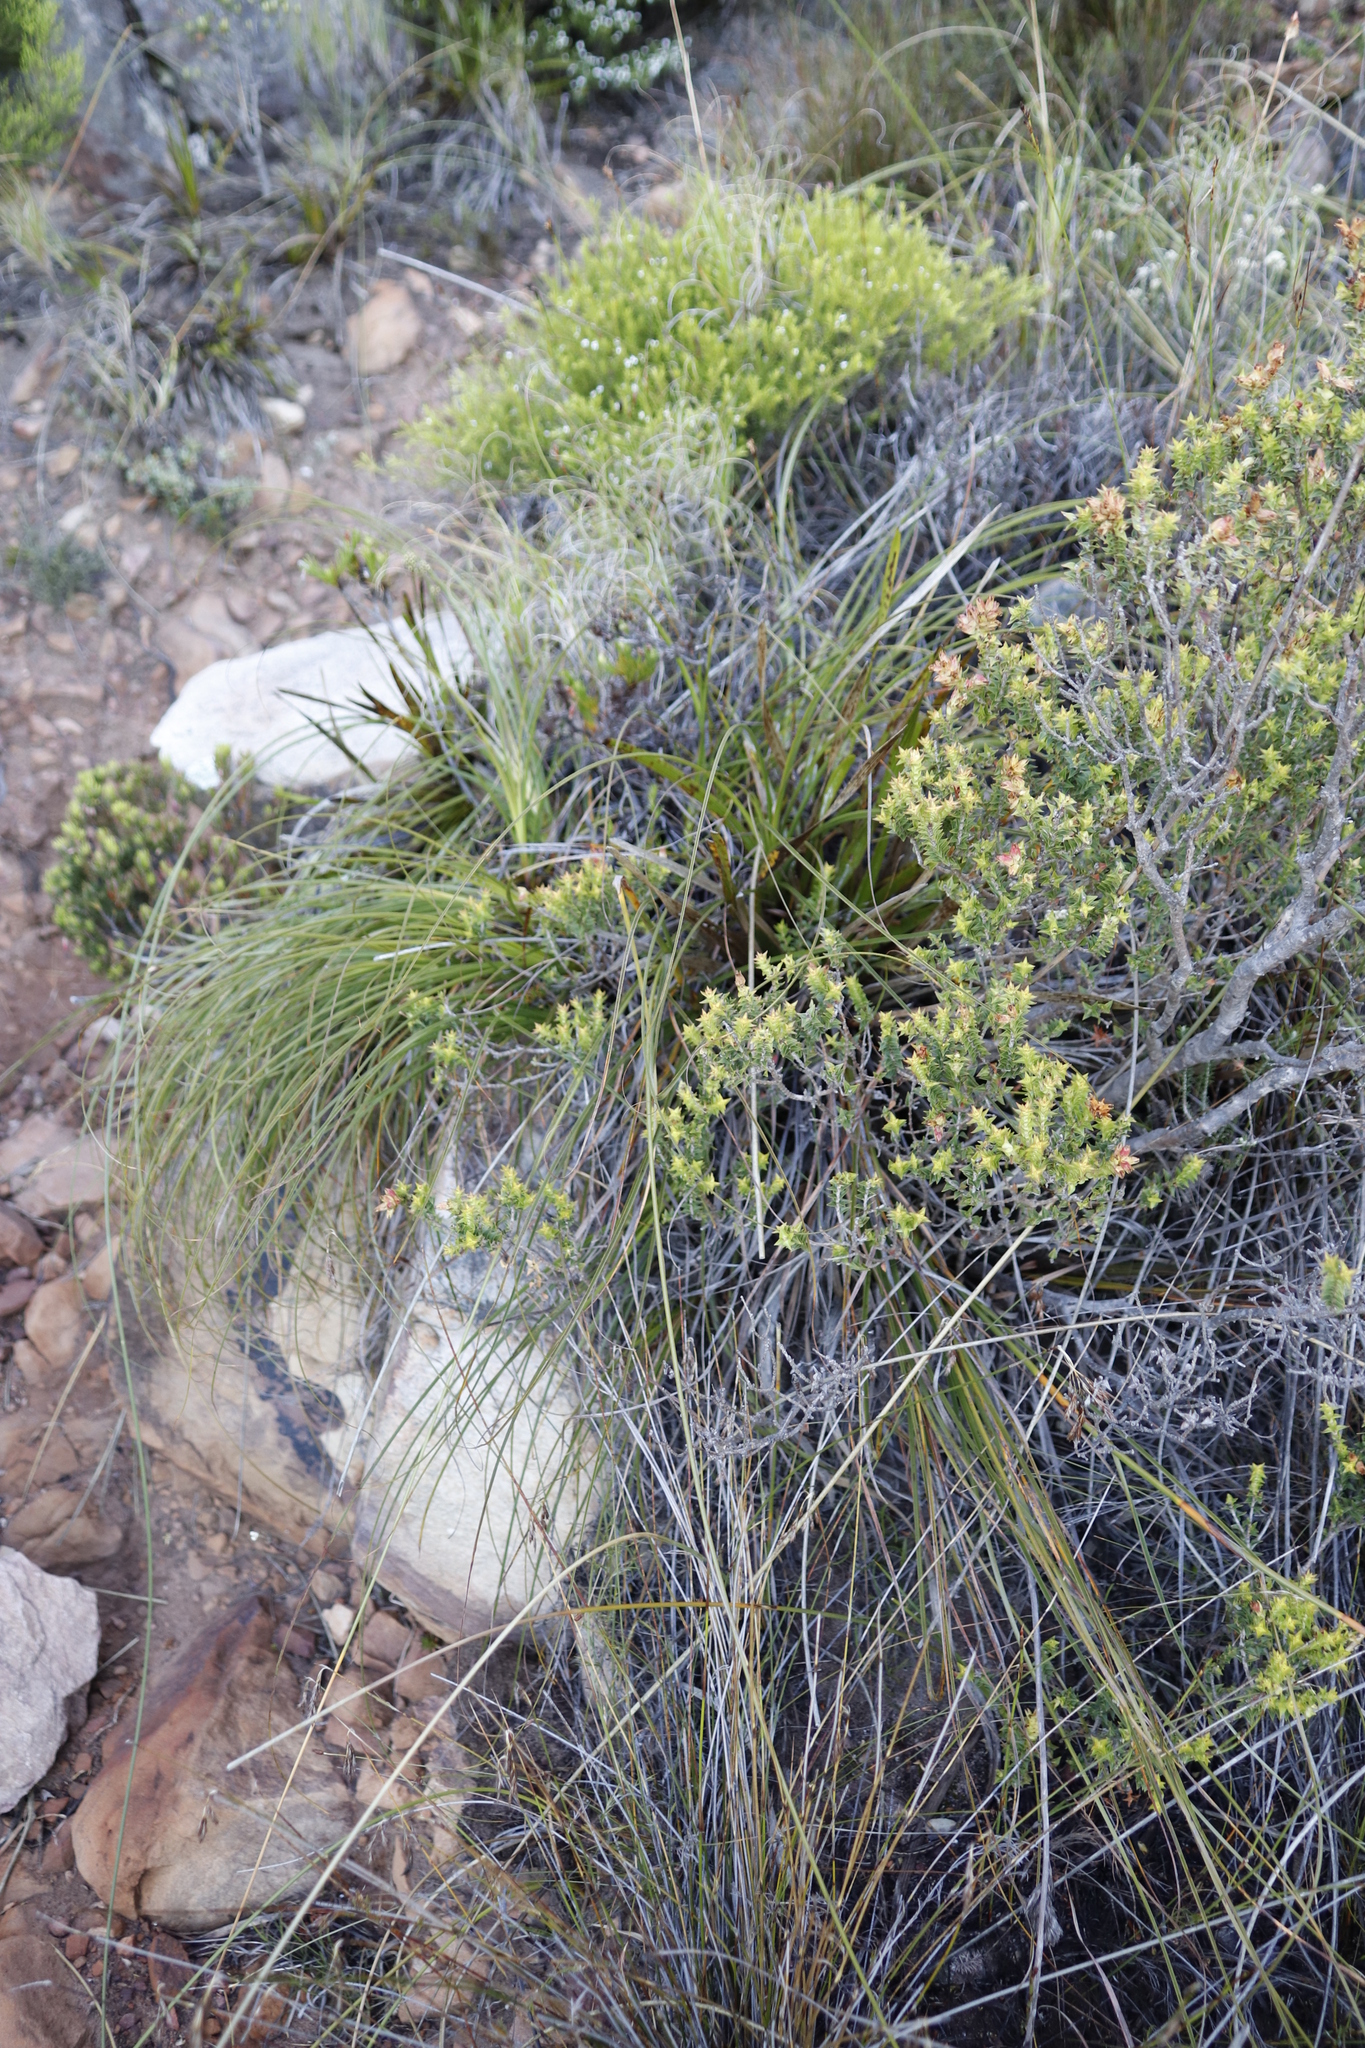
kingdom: Plantae
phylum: Tracheophyta
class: Liliopsida
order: Poales
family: Cyperaceae
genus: Tetraria
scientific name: Tetraria bromoides
